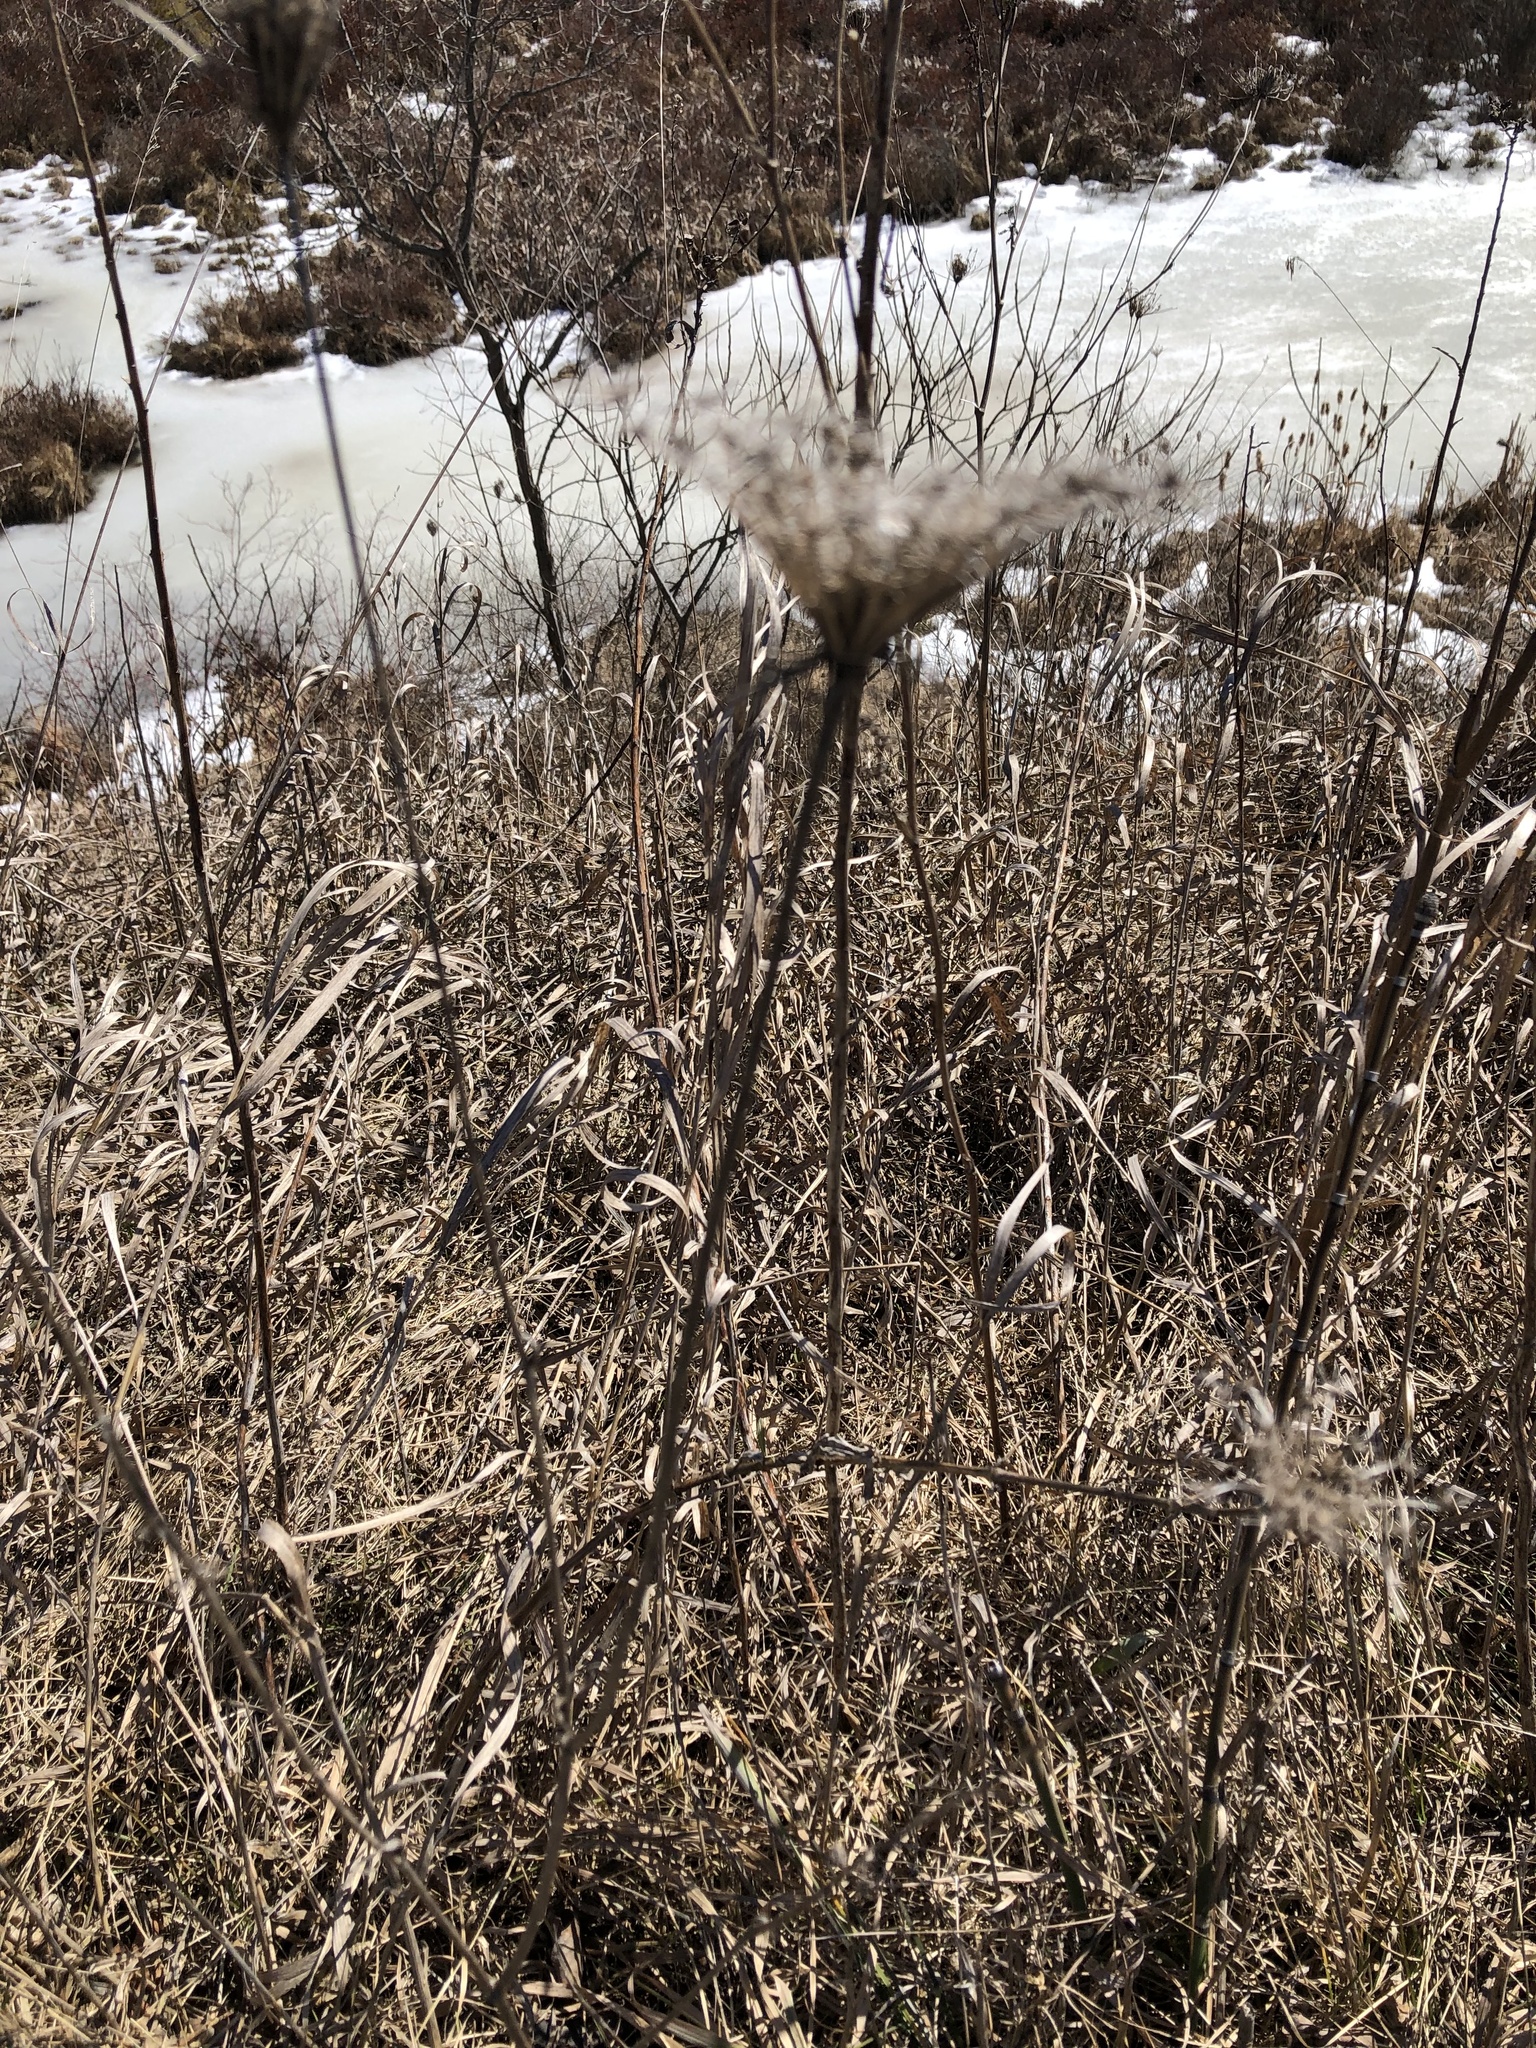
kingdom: Plantae
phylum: Tracheophyta
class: Magnoliopsida
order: Apiales
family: Apiaceae
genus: Daucus
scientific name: Daucus carota
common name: Wild carrot
